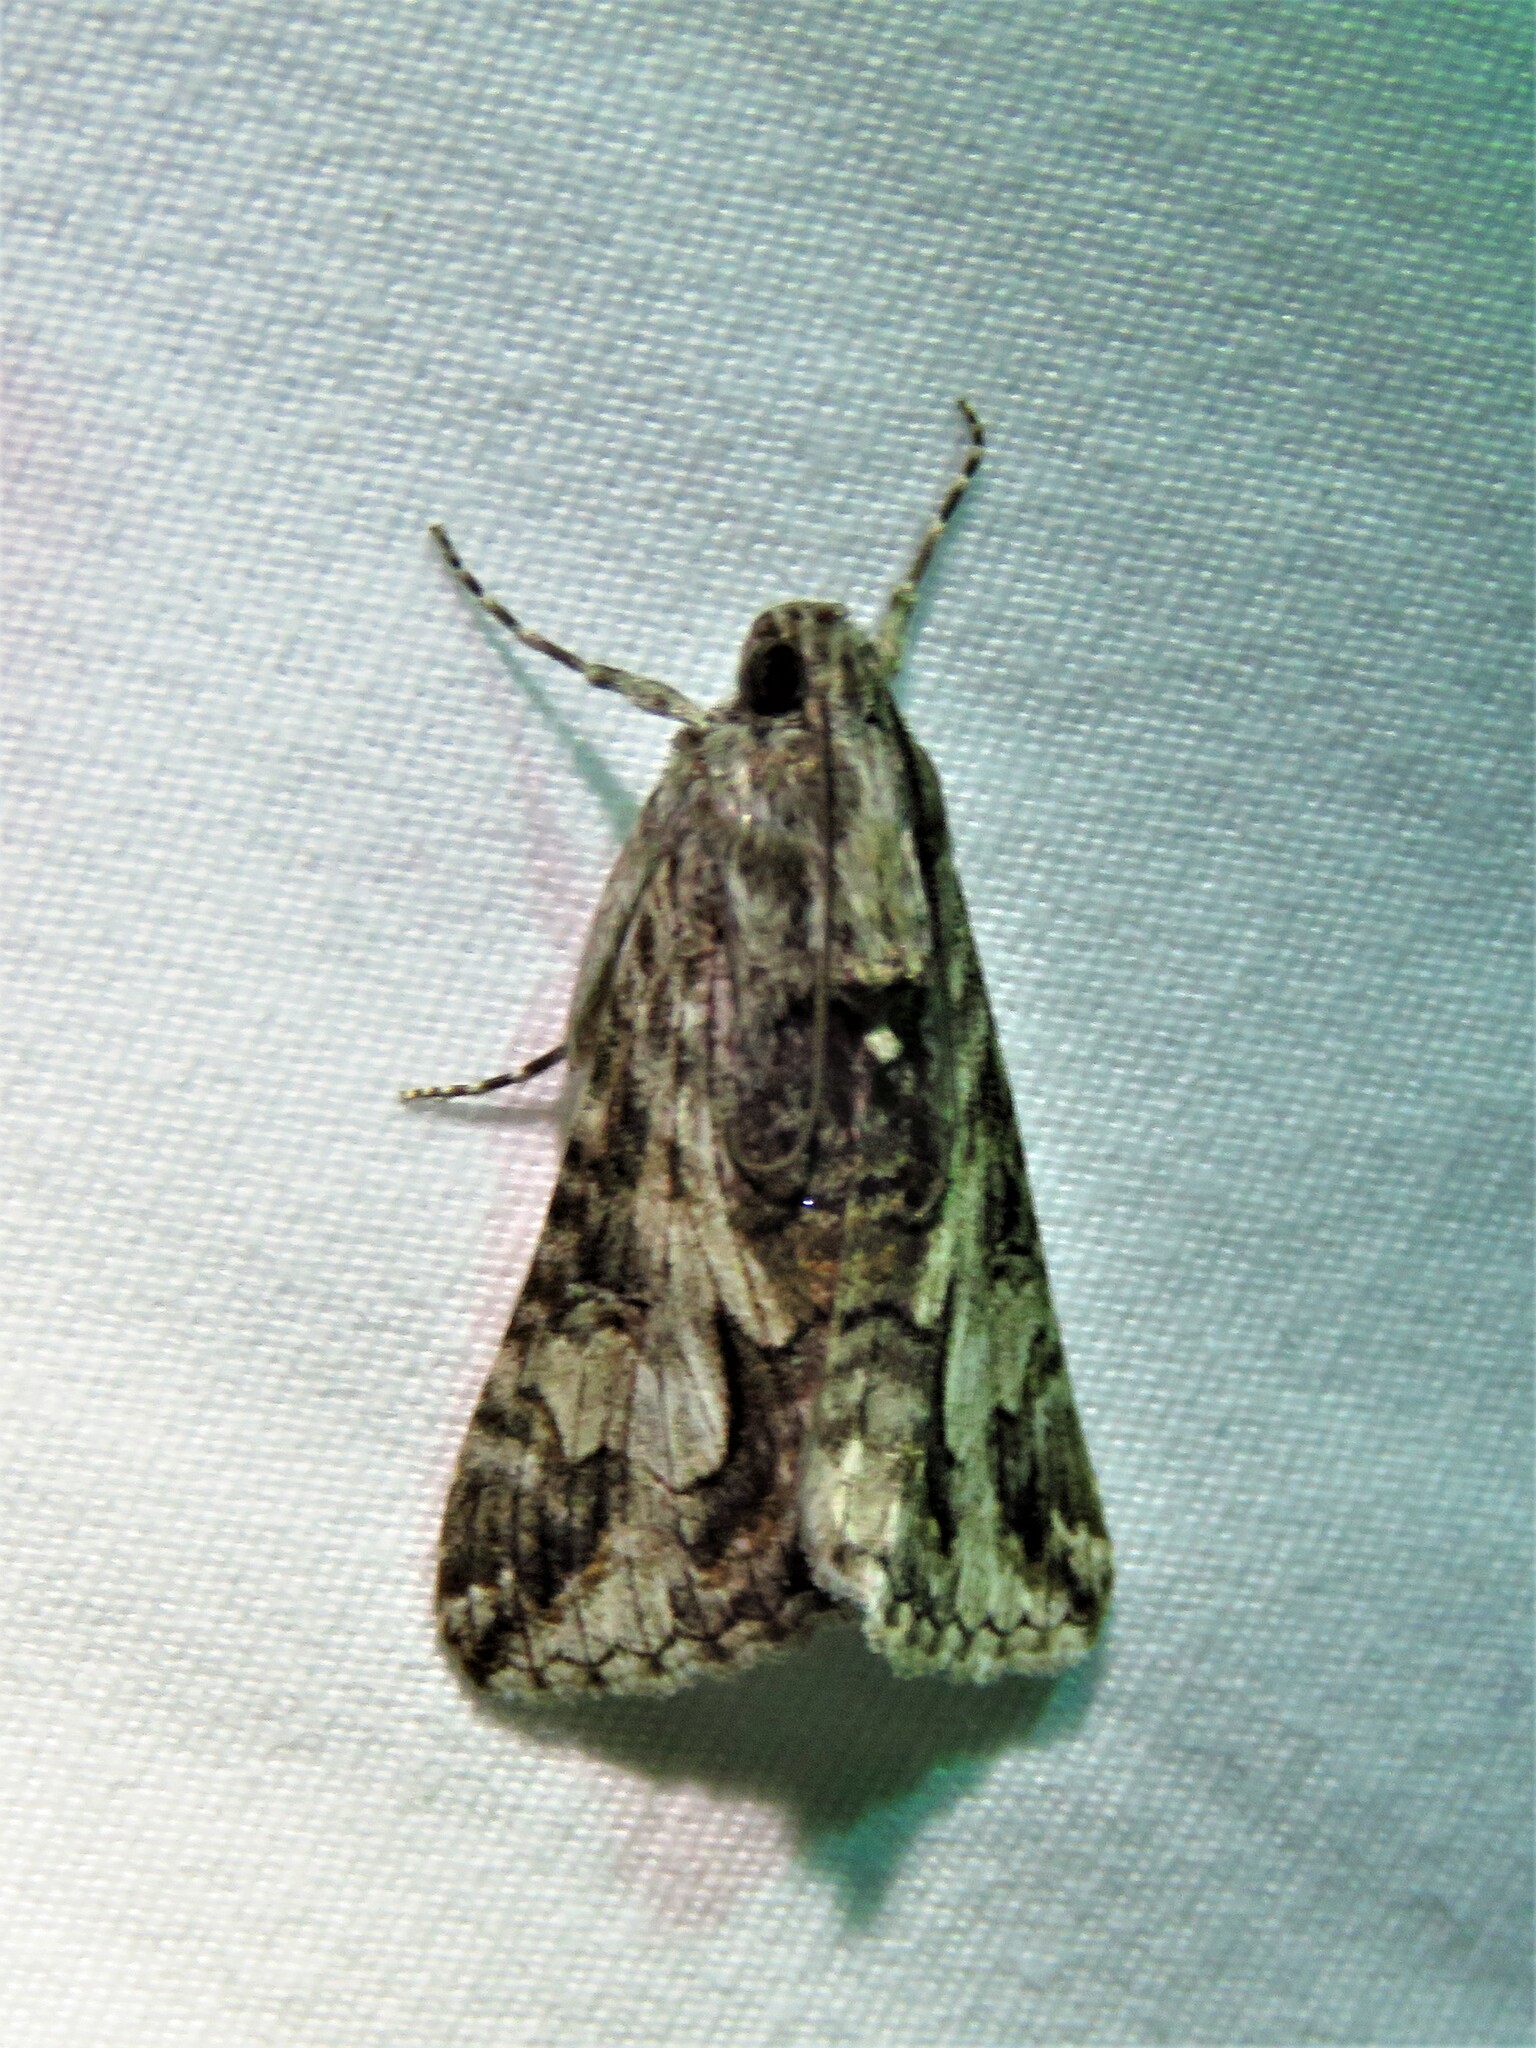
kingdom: Animalia
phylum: Arthropoda
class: Insecta
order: Lepidoptera
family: Erebidae
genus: Melipotis
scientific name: Melipotis jucunda
